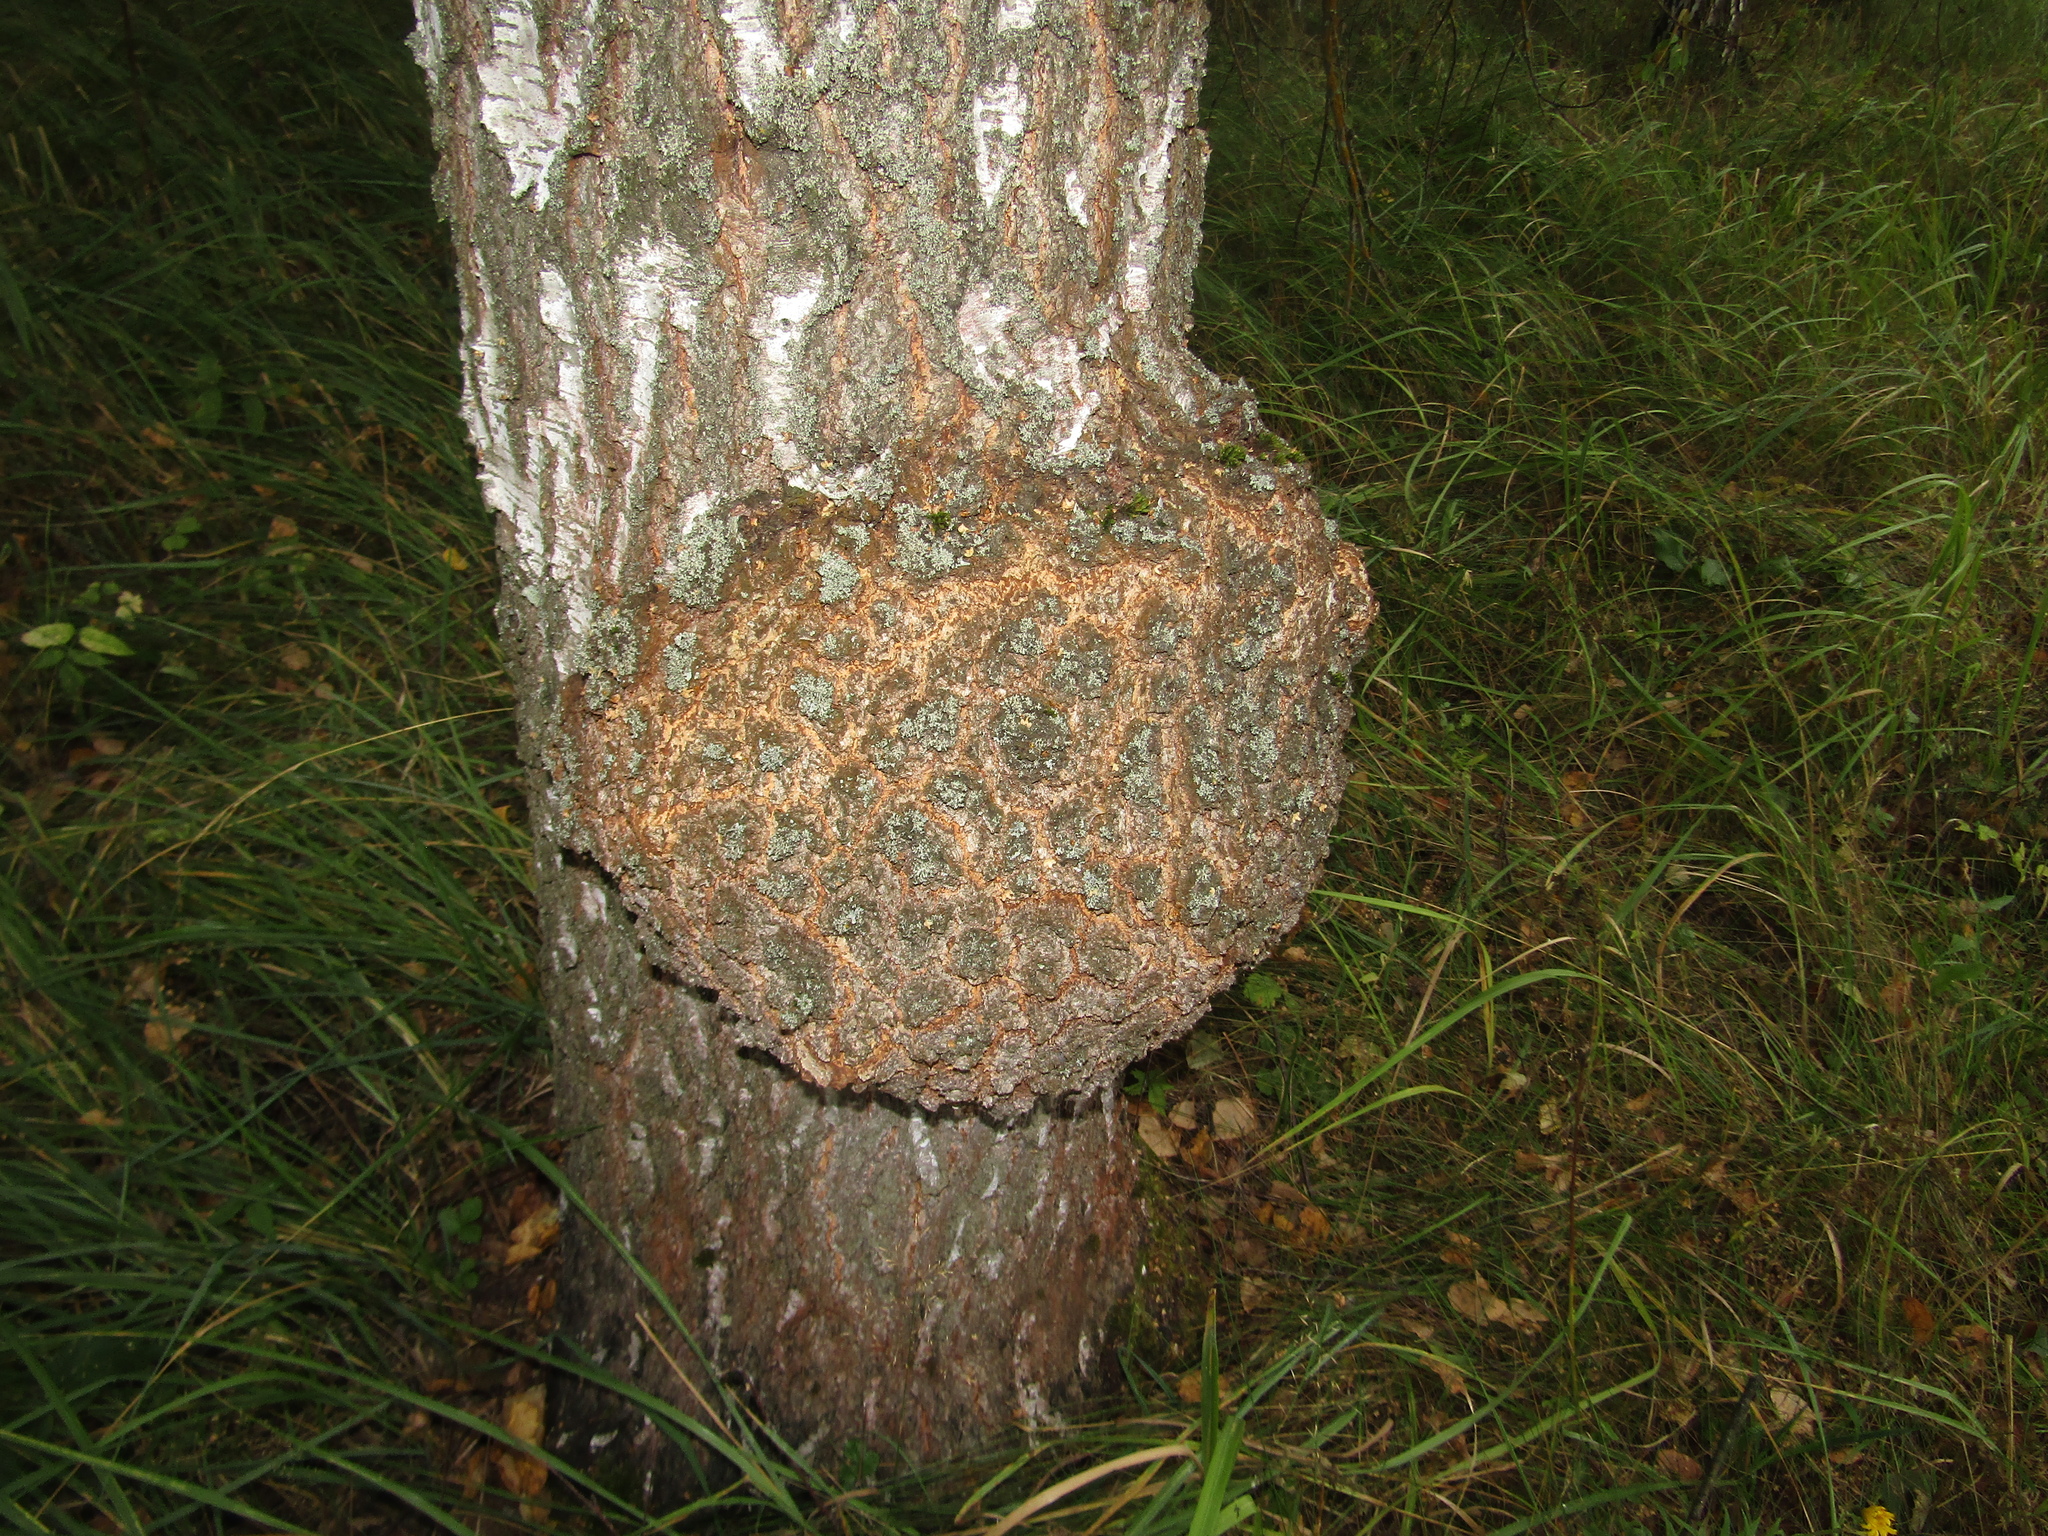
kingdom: Bacteria
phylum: Proteobacteria
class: Alphaproteobacteria
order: Rhizobiales
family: Rhizobiaceae
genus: Rhizobium
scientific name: Rhizobium Agrobacterium radiobacter
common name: Bacterial crown gall
